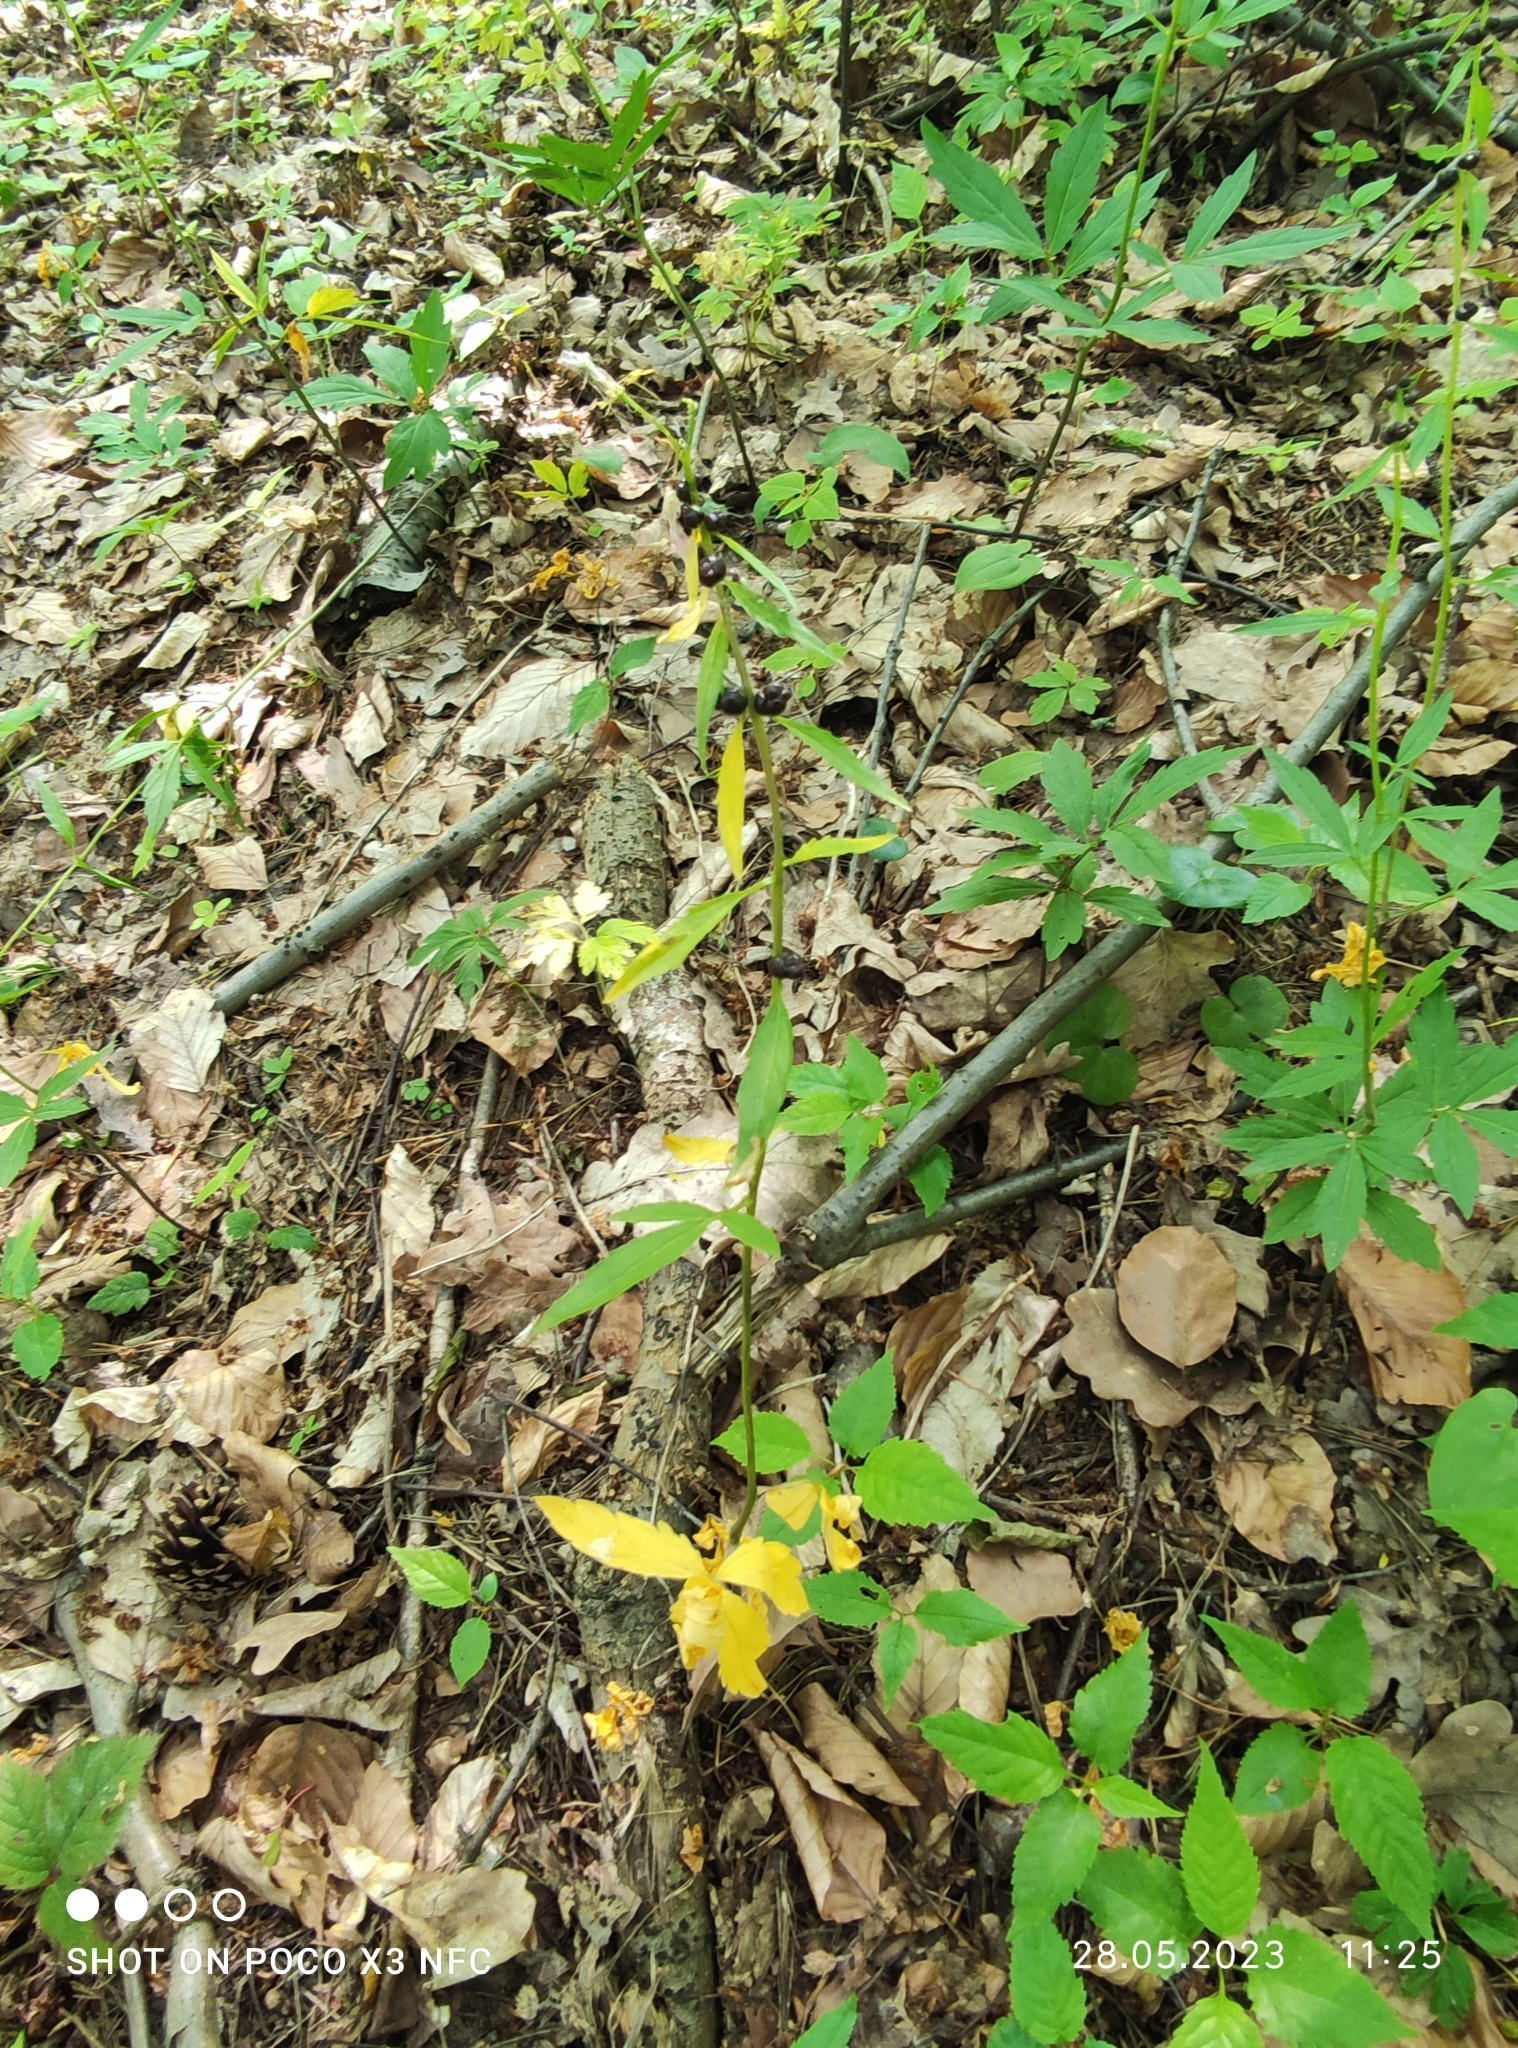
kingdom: Plantae
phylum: Tracheophyta
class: Magnoliopsida
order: Brassicales
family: Brassicaceae
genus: Cardamine
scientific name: Cardamine bulbifera
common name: Coralroot bittercress
